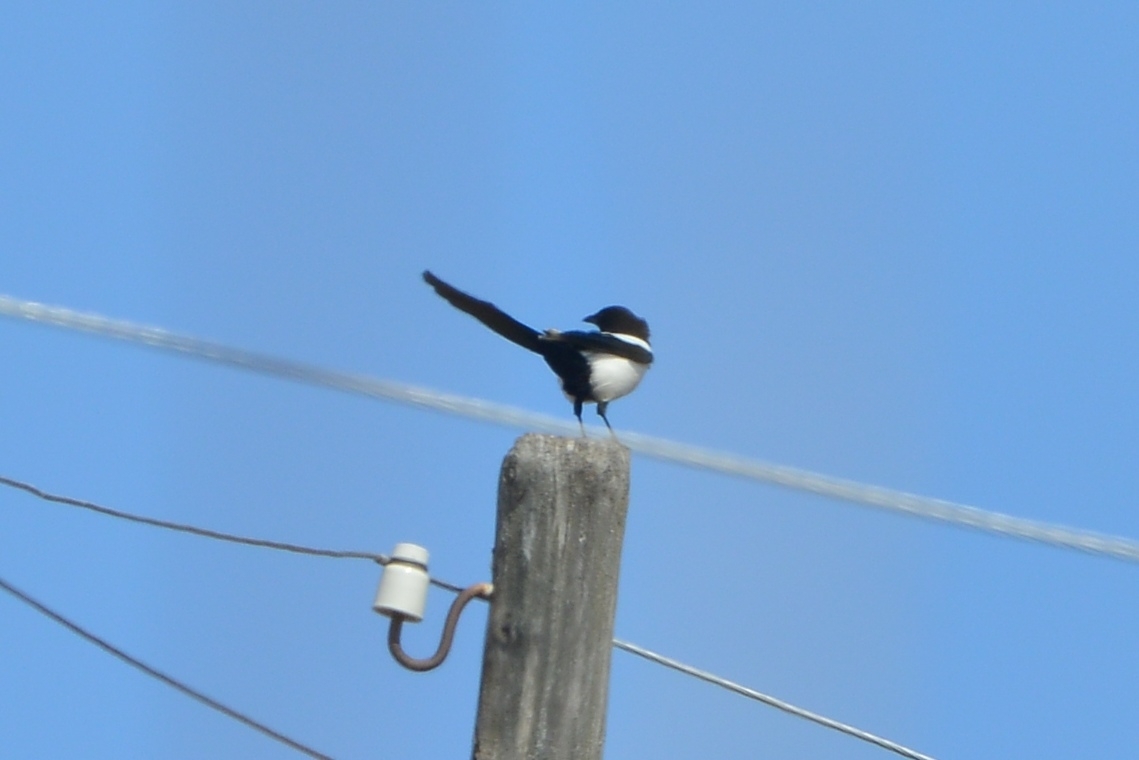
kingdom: Animalia
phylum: Chordata
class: Aves
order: Passeriformes
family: Corvidae
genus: Pica
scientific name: Pica pica
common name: Eurasian magpie
